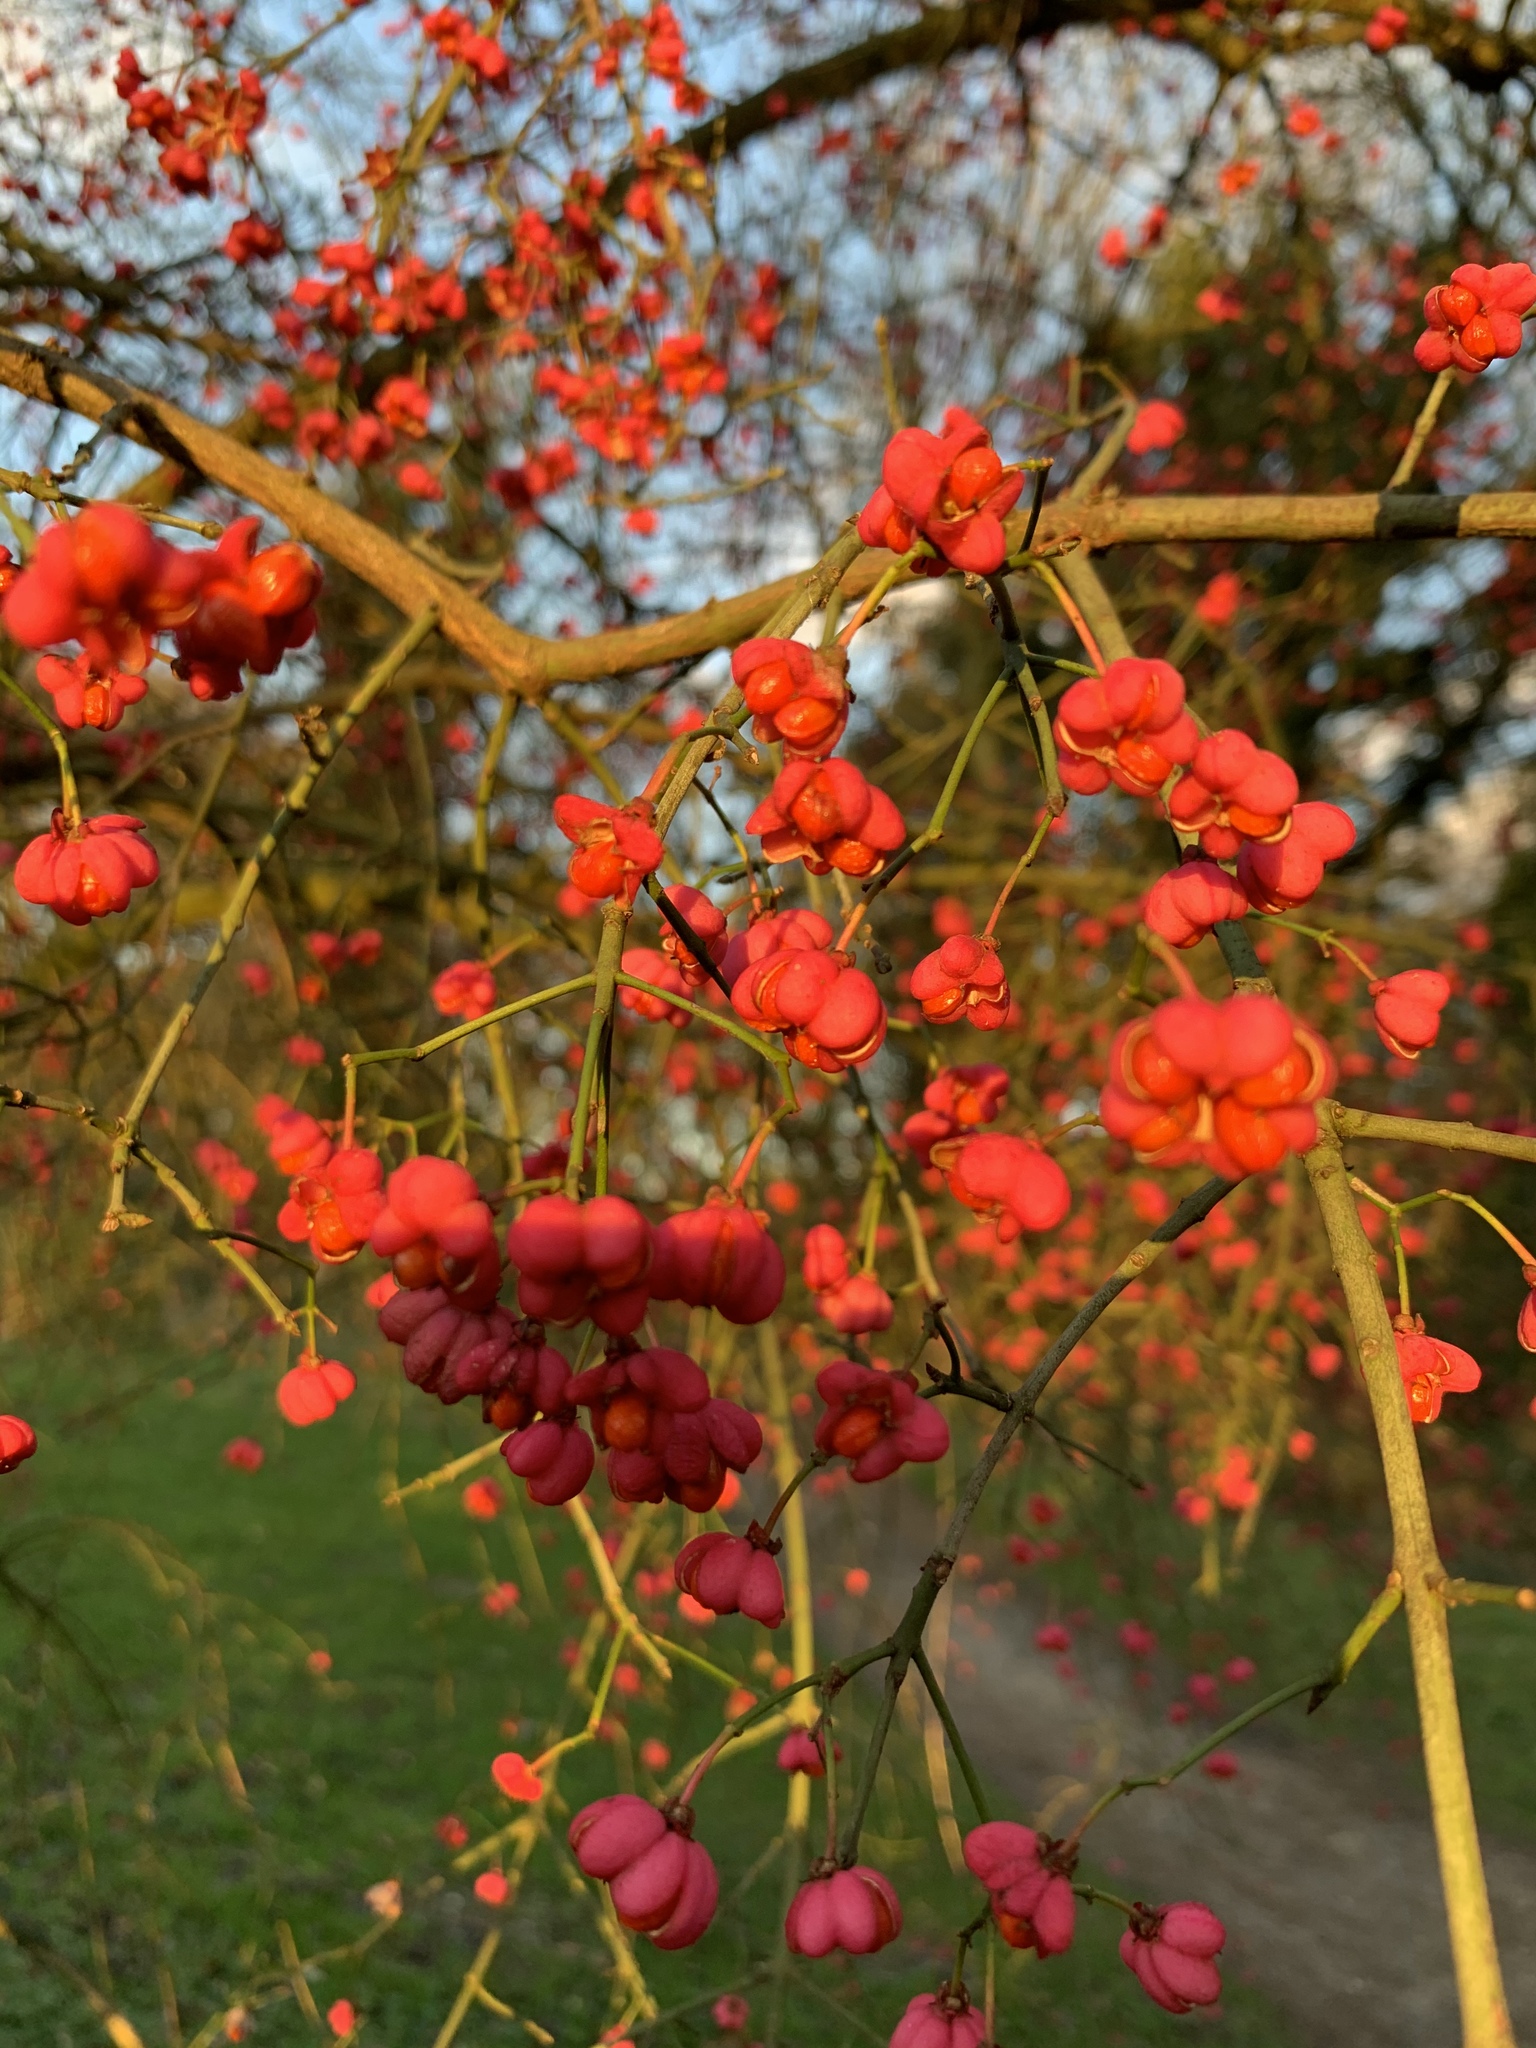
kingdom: Plantae
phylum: Tracheophyta
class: Magnoliopsida
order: Celastrales
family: Celastraceae
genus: Euonymus
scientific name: Euonymus europaeus
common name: Spindle
